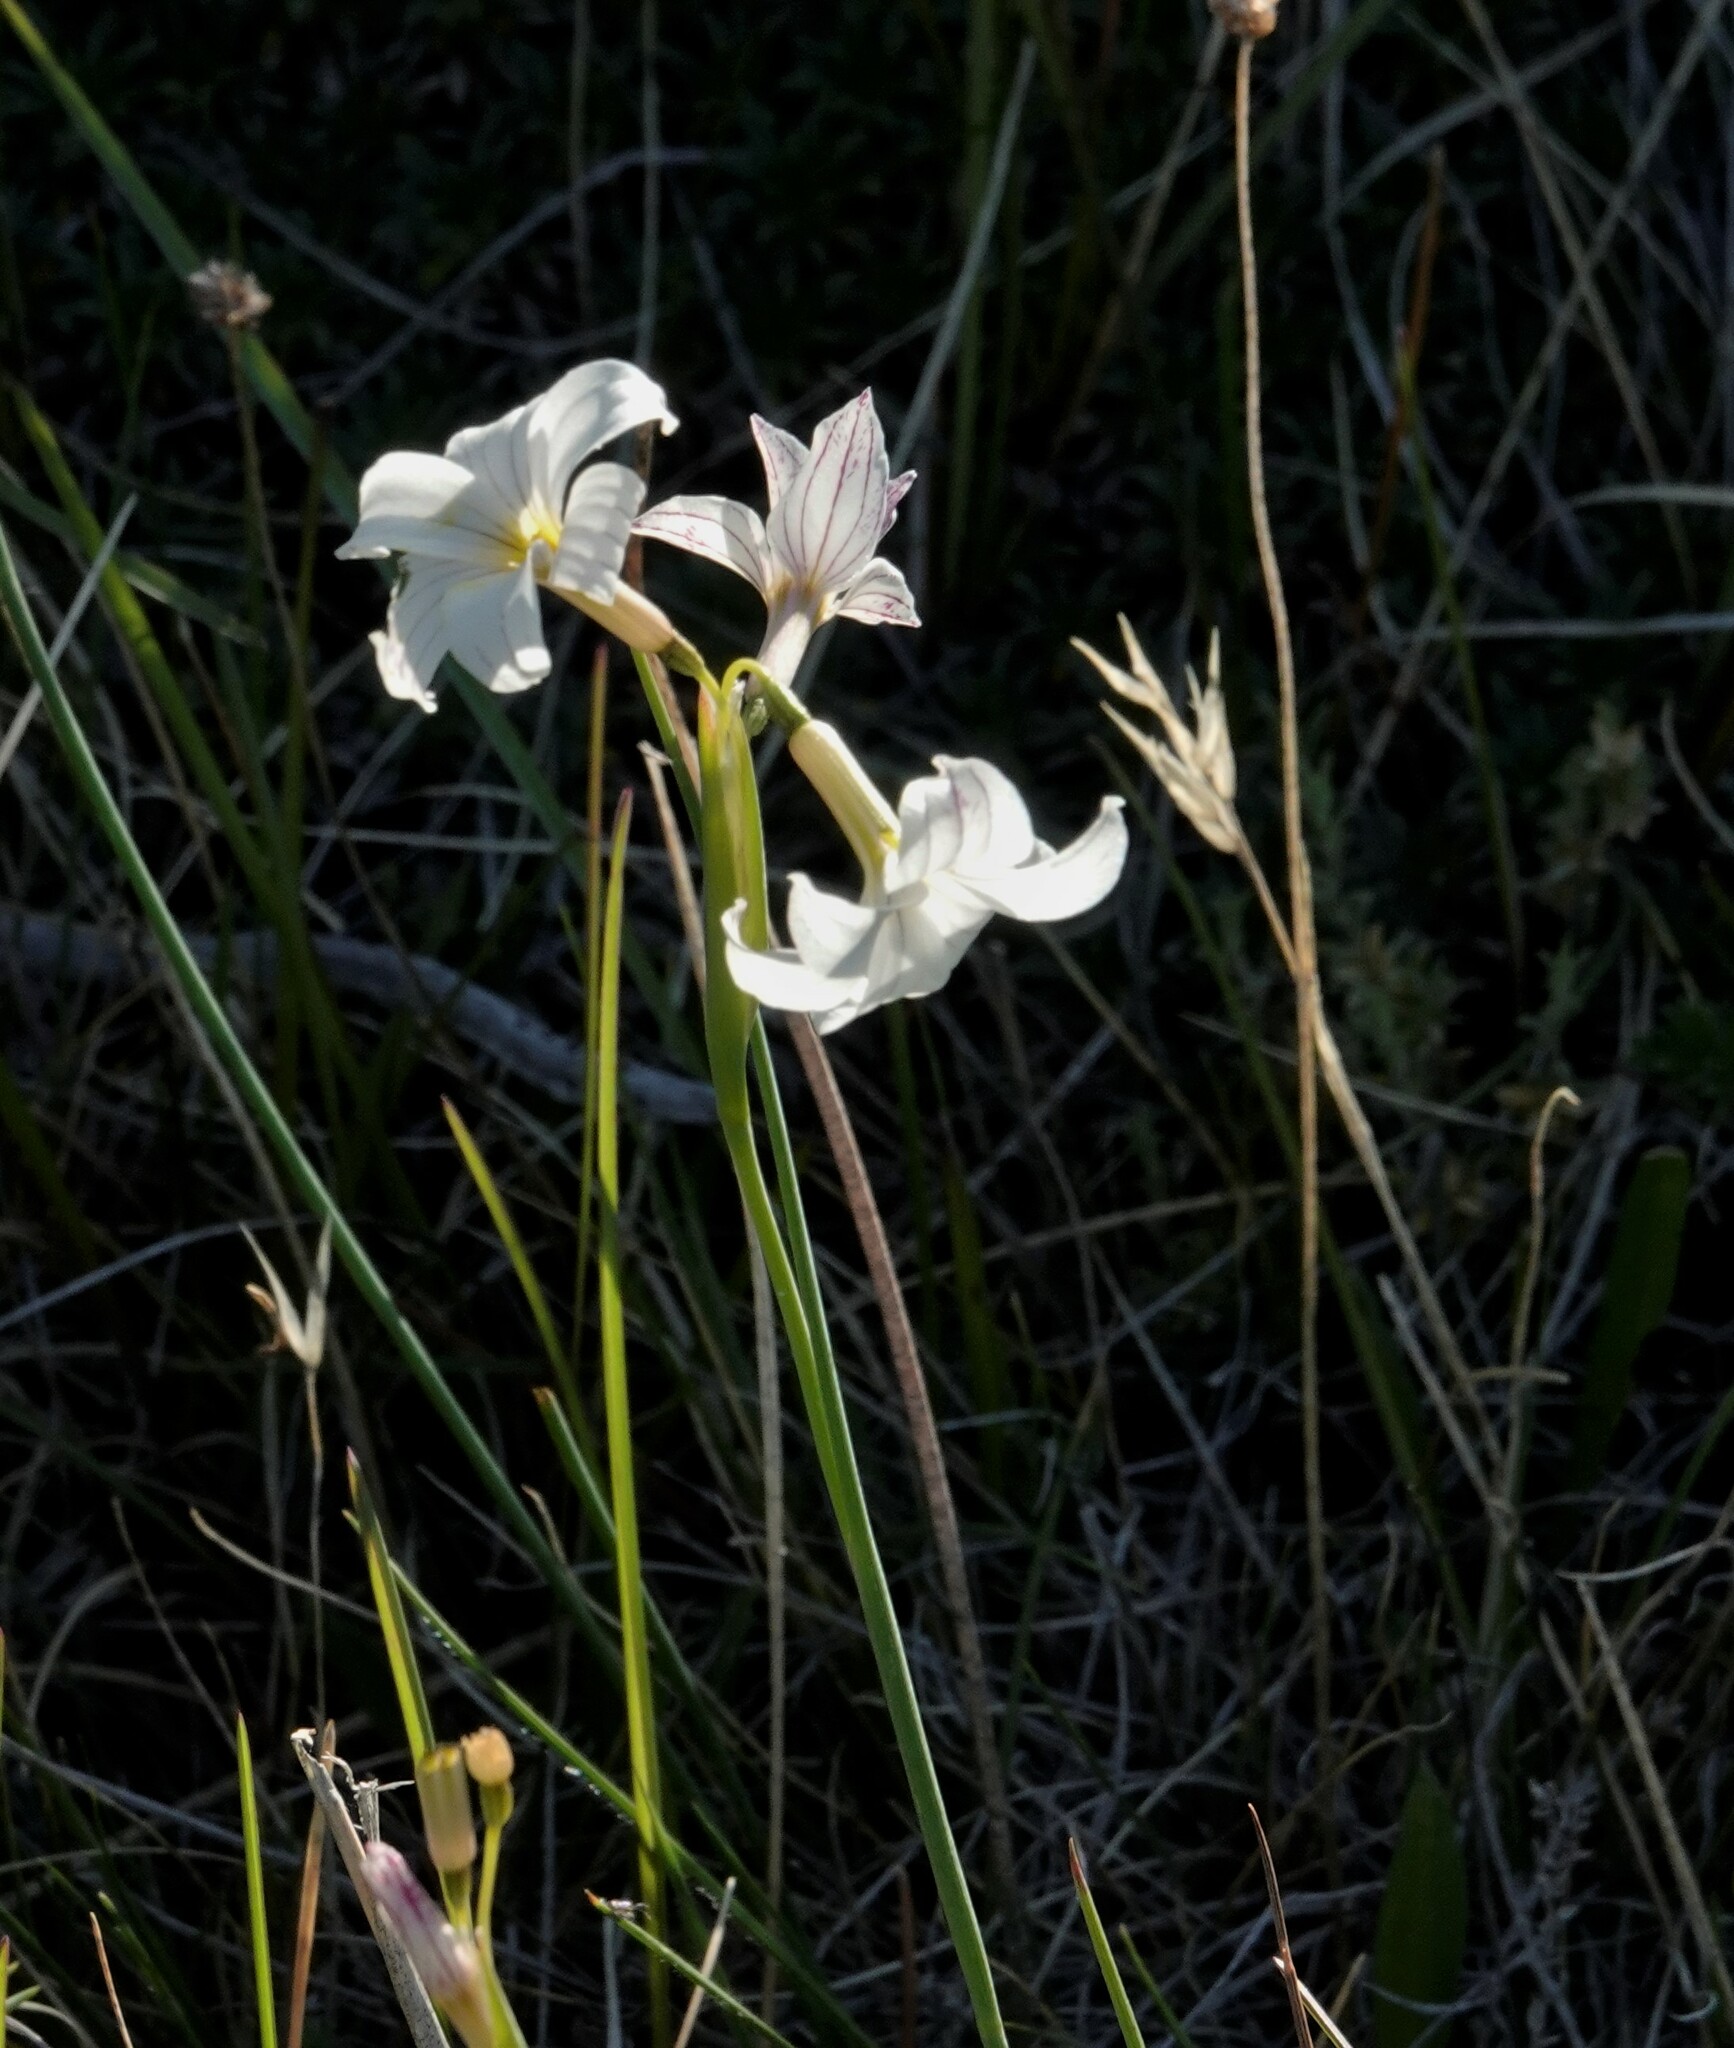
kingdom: Plantae
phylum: Tracheophyta
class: Liliopsida
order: Asparagales
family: Iridaceae
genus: Olsynium
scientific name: Olsynium biflorum
